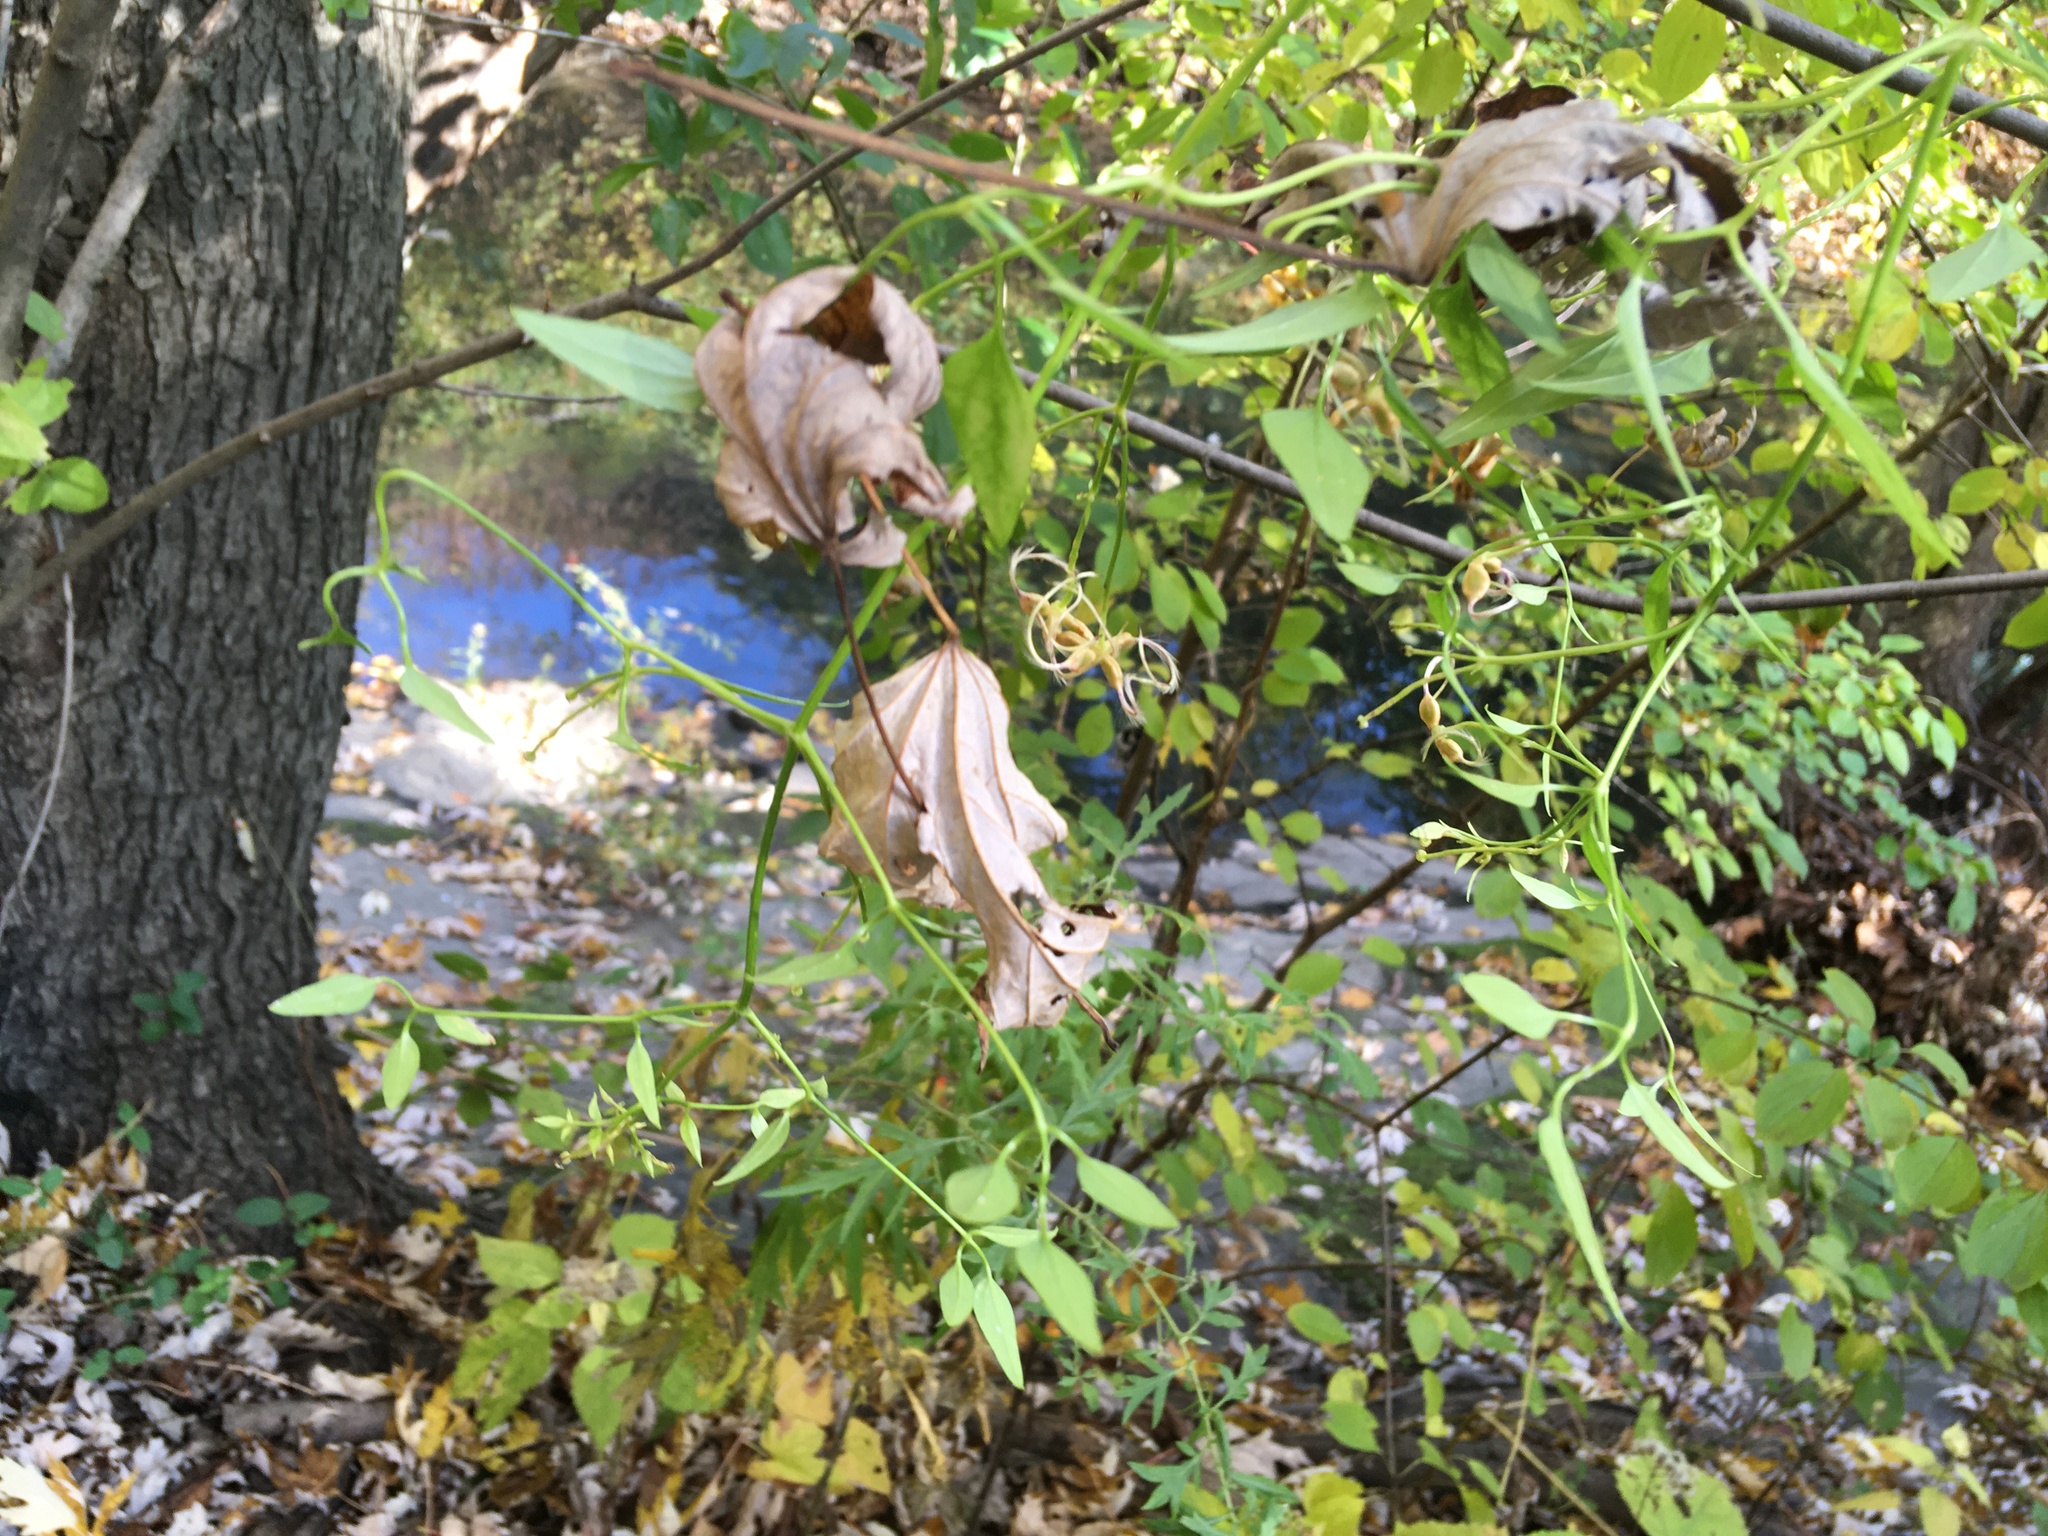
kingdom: Plantae
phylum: Tracheophyta
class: Magnoliopsida
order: Ranunculales
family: Ranunculaceae
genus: Clematis
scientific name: Clematis terniflora
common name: Sweet autumn clematis
